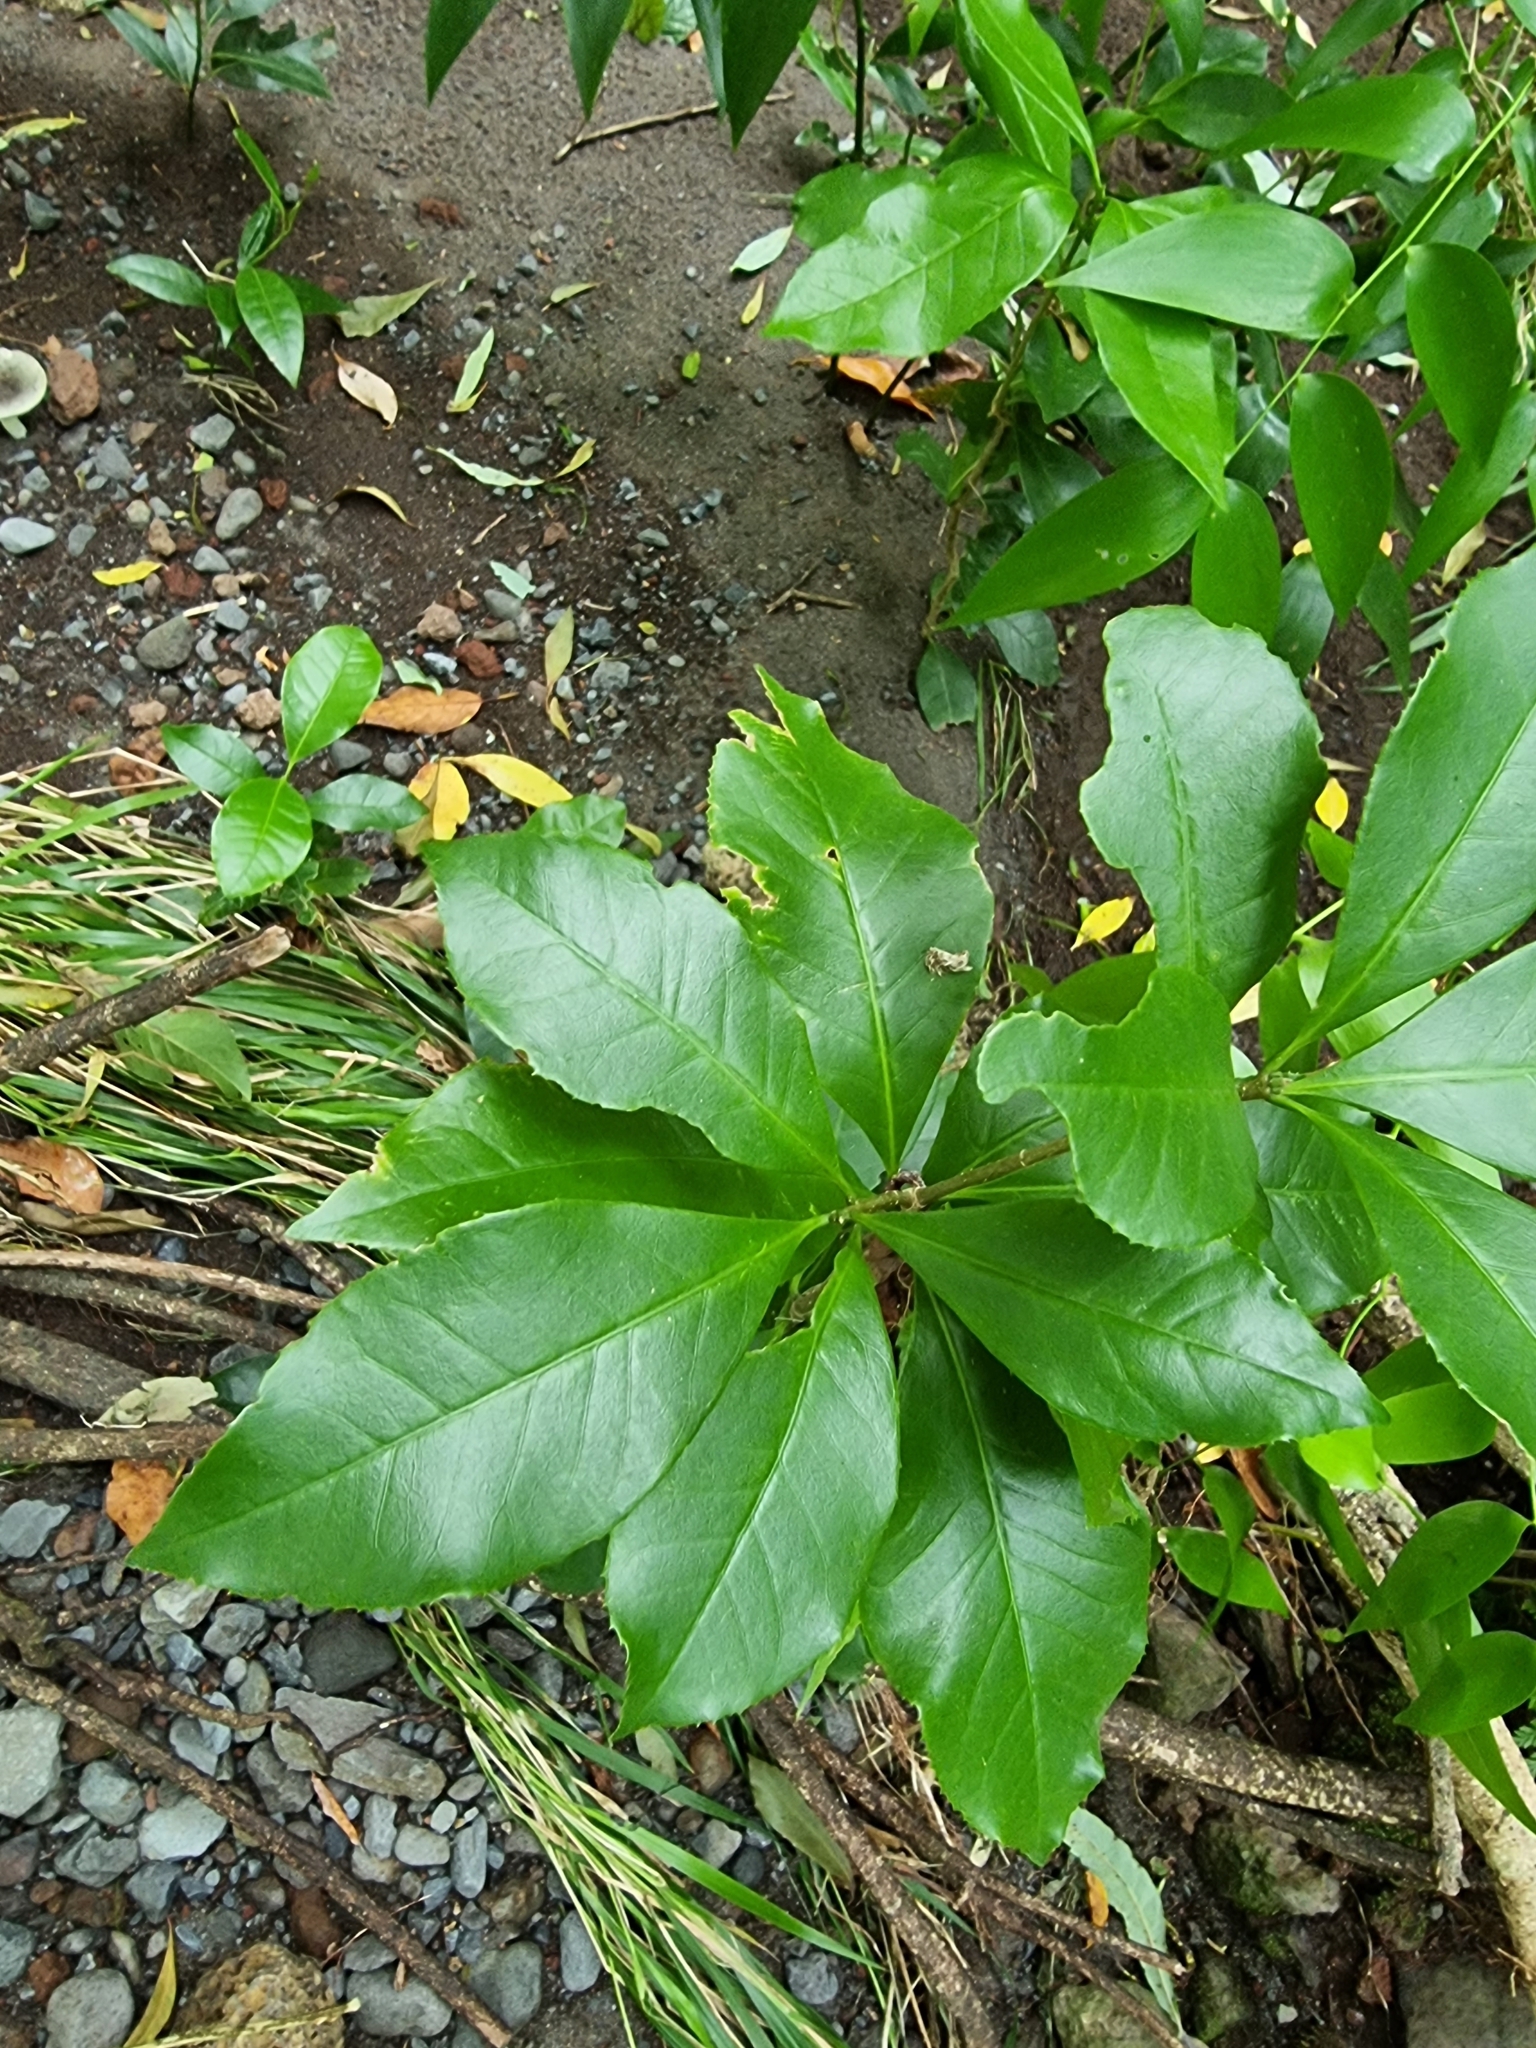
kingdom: Plantae
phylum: Tracheophyta
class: Magnoliopsida
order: Lamiales
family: Oleaceae
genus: Picconia
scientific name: Picconia excelsa
